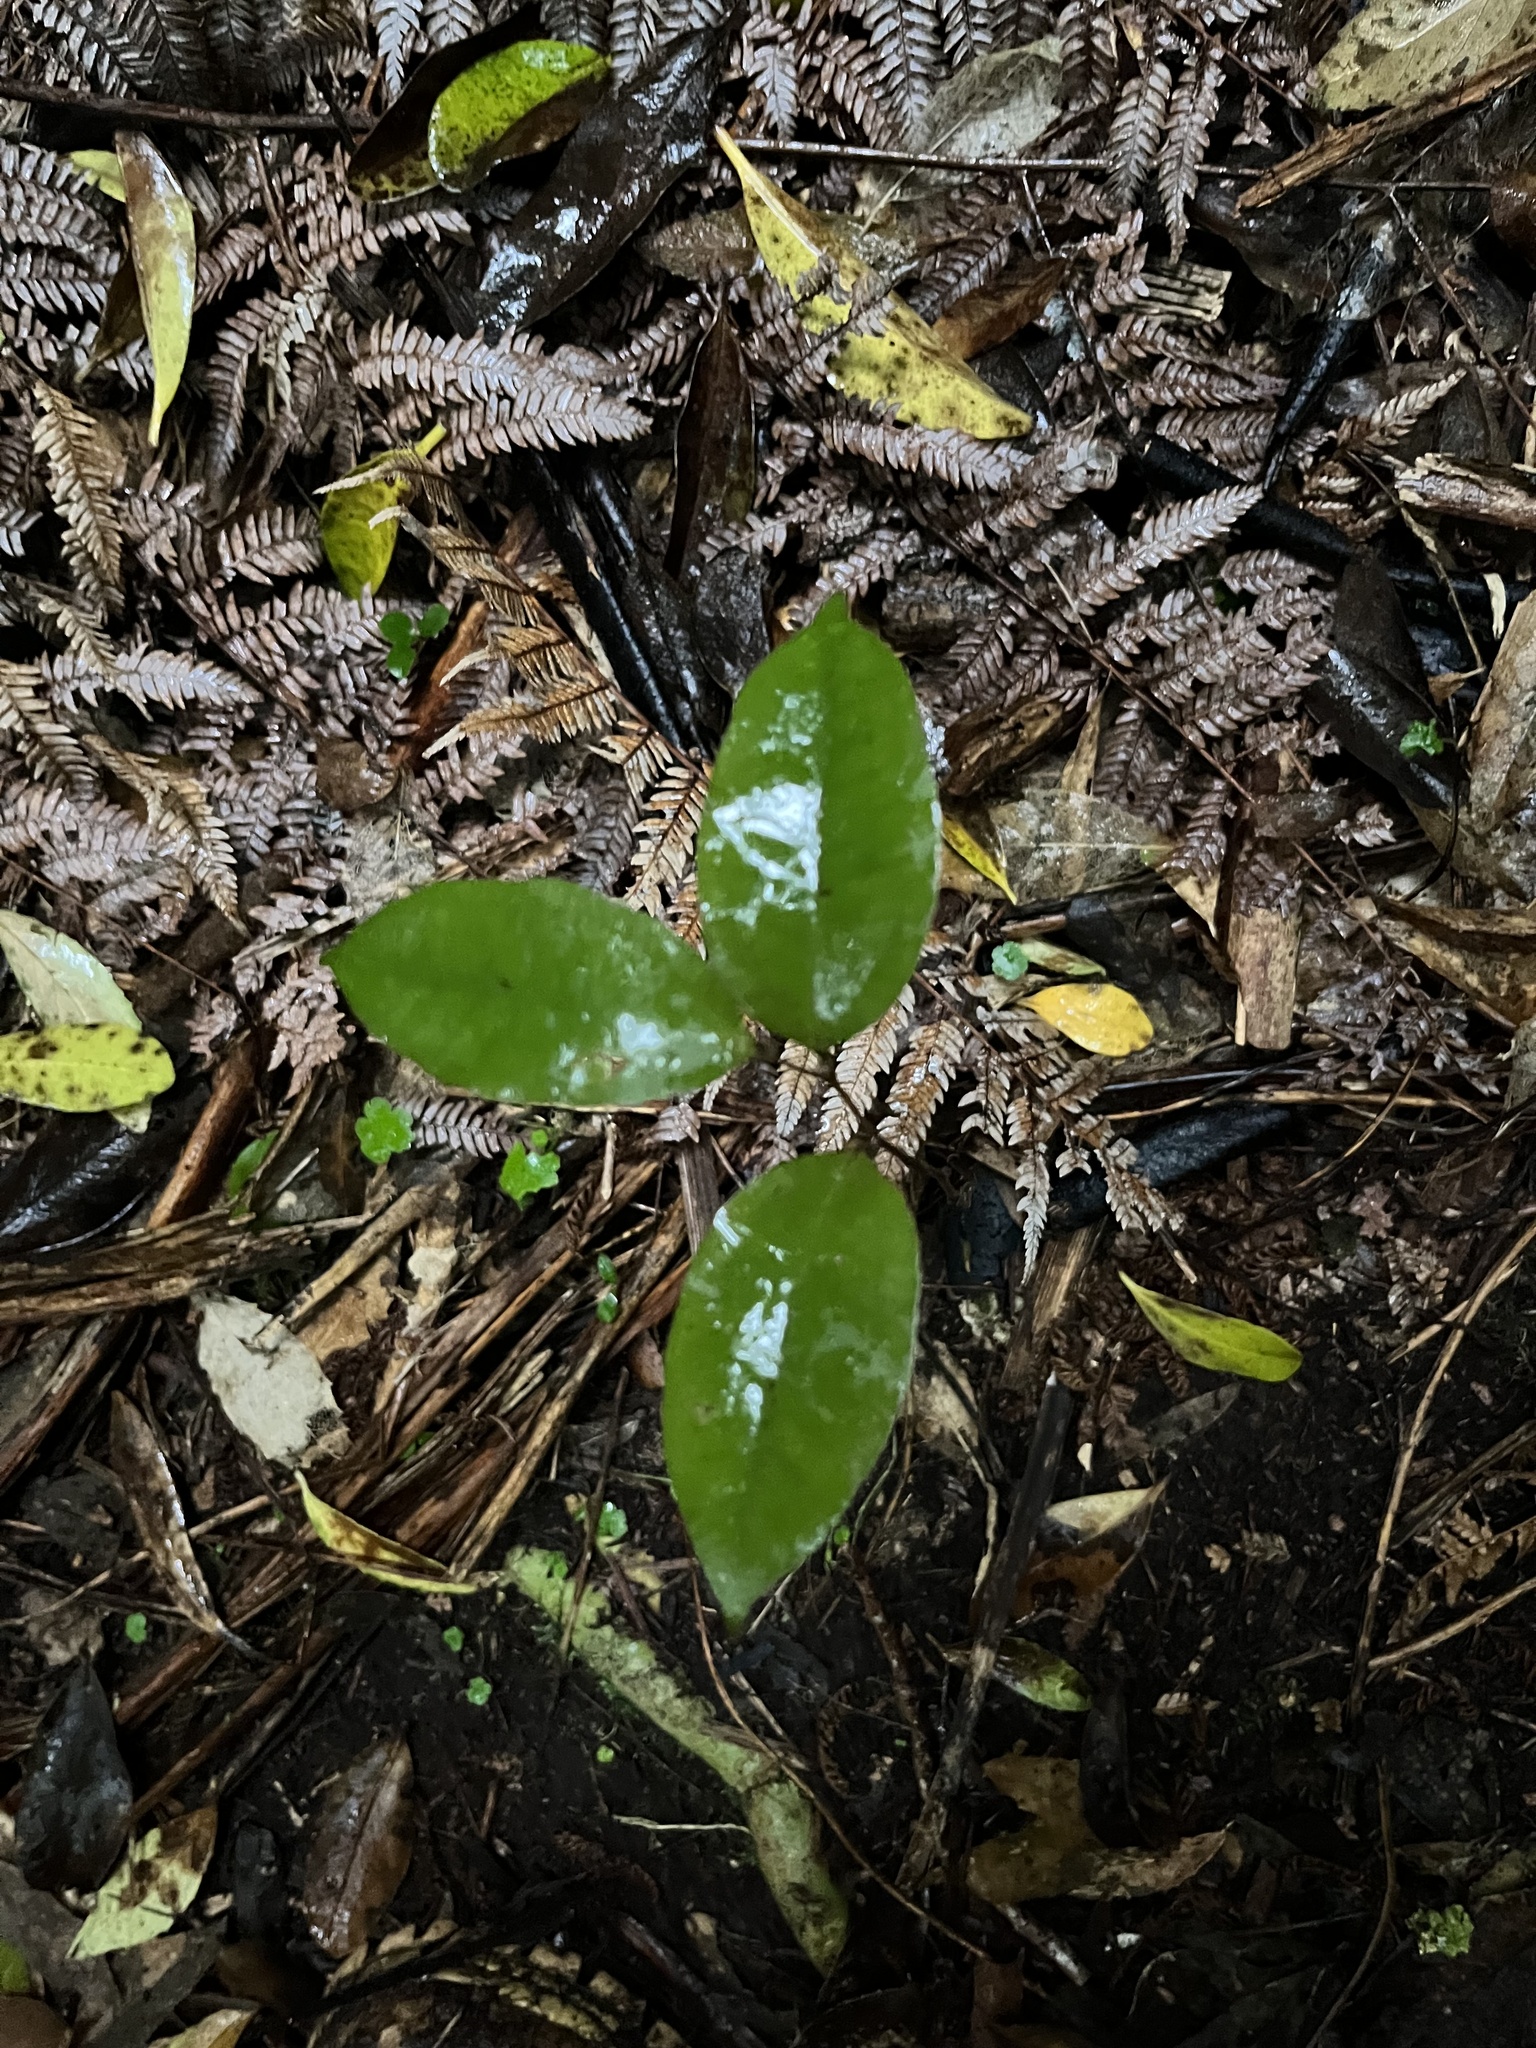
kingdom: Plantae
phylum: Tracheophyta
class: Liliopsida
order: Liliales
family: Ripogonaceae
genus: Ripogonum
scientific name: Ripogonum scandens
